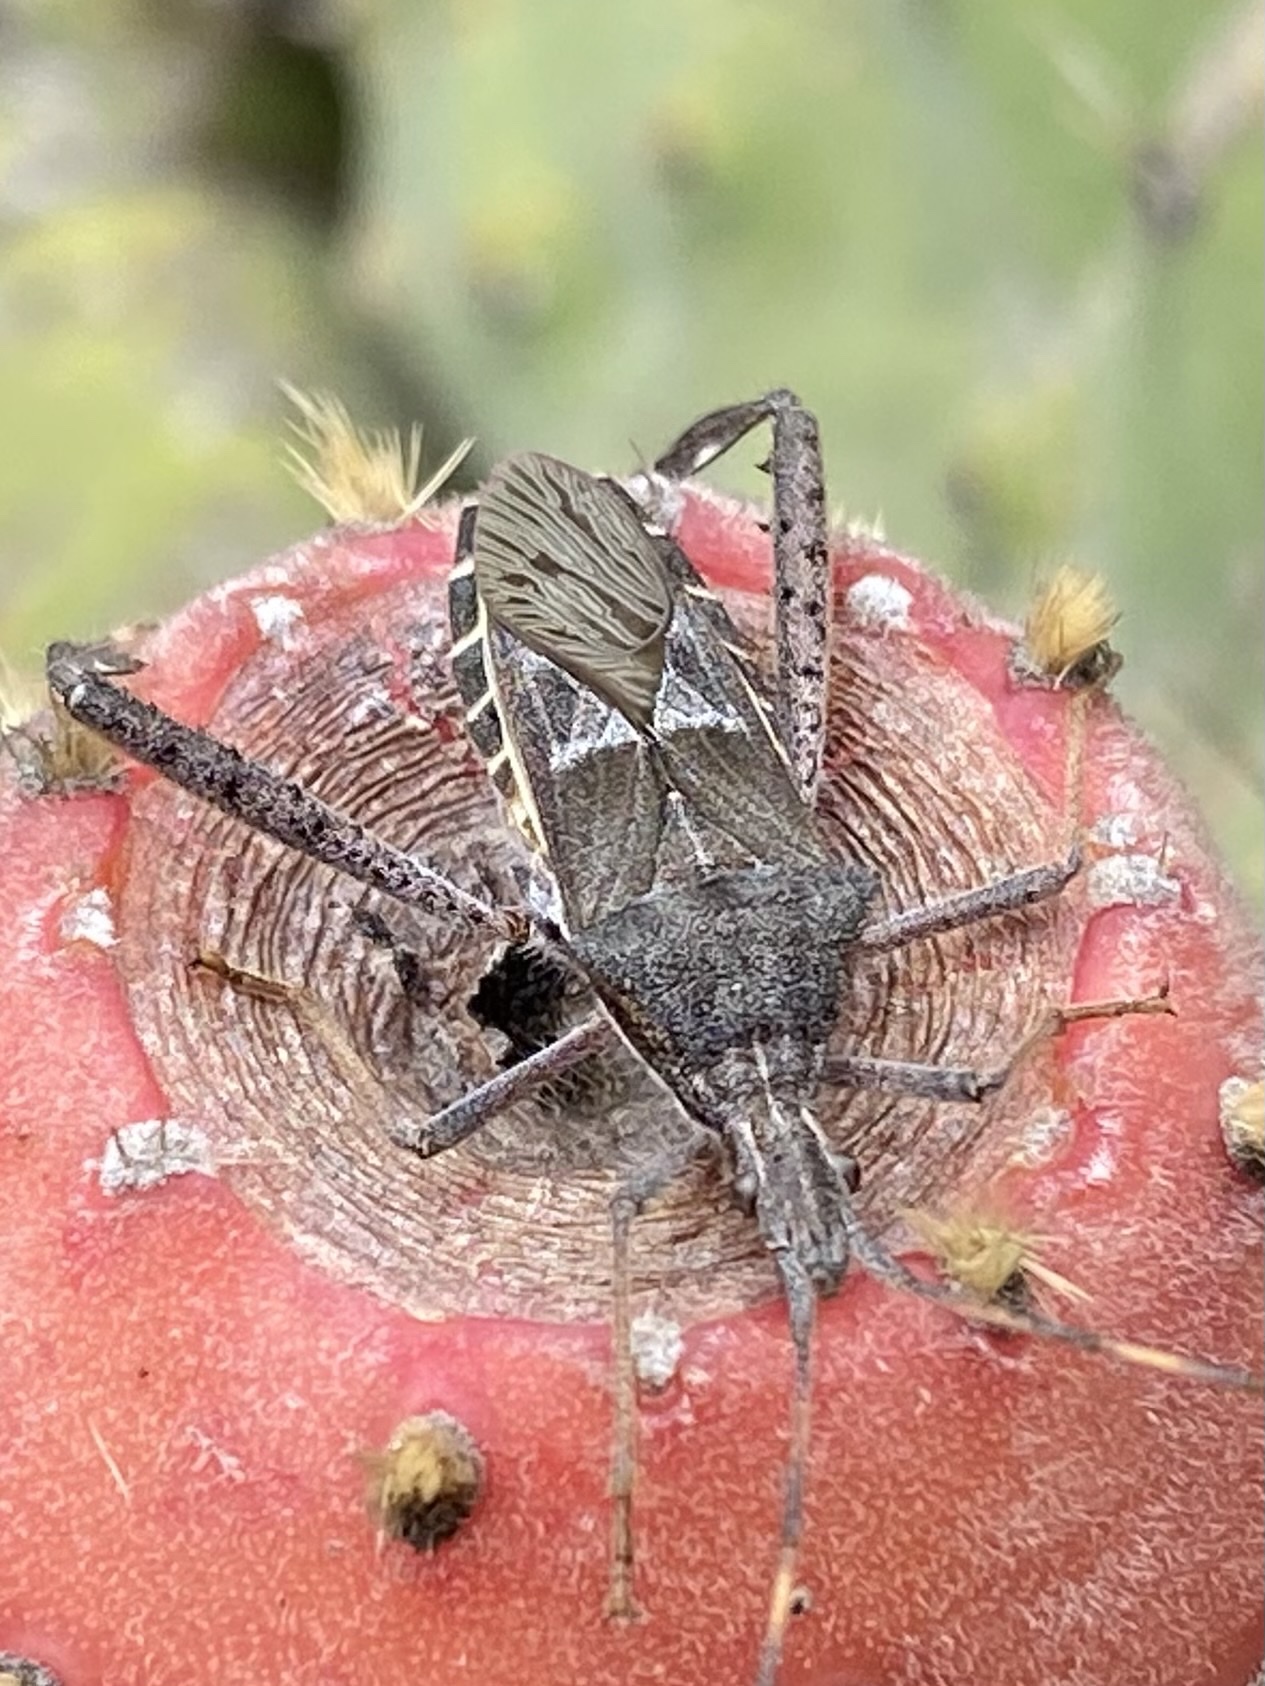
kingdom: Animalia
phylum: Arthropoda
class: Insecta
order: Hemiptera
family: Coreidae
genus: Narnia
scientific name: Narnia femorata
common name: Leaf-footed cactus bug
